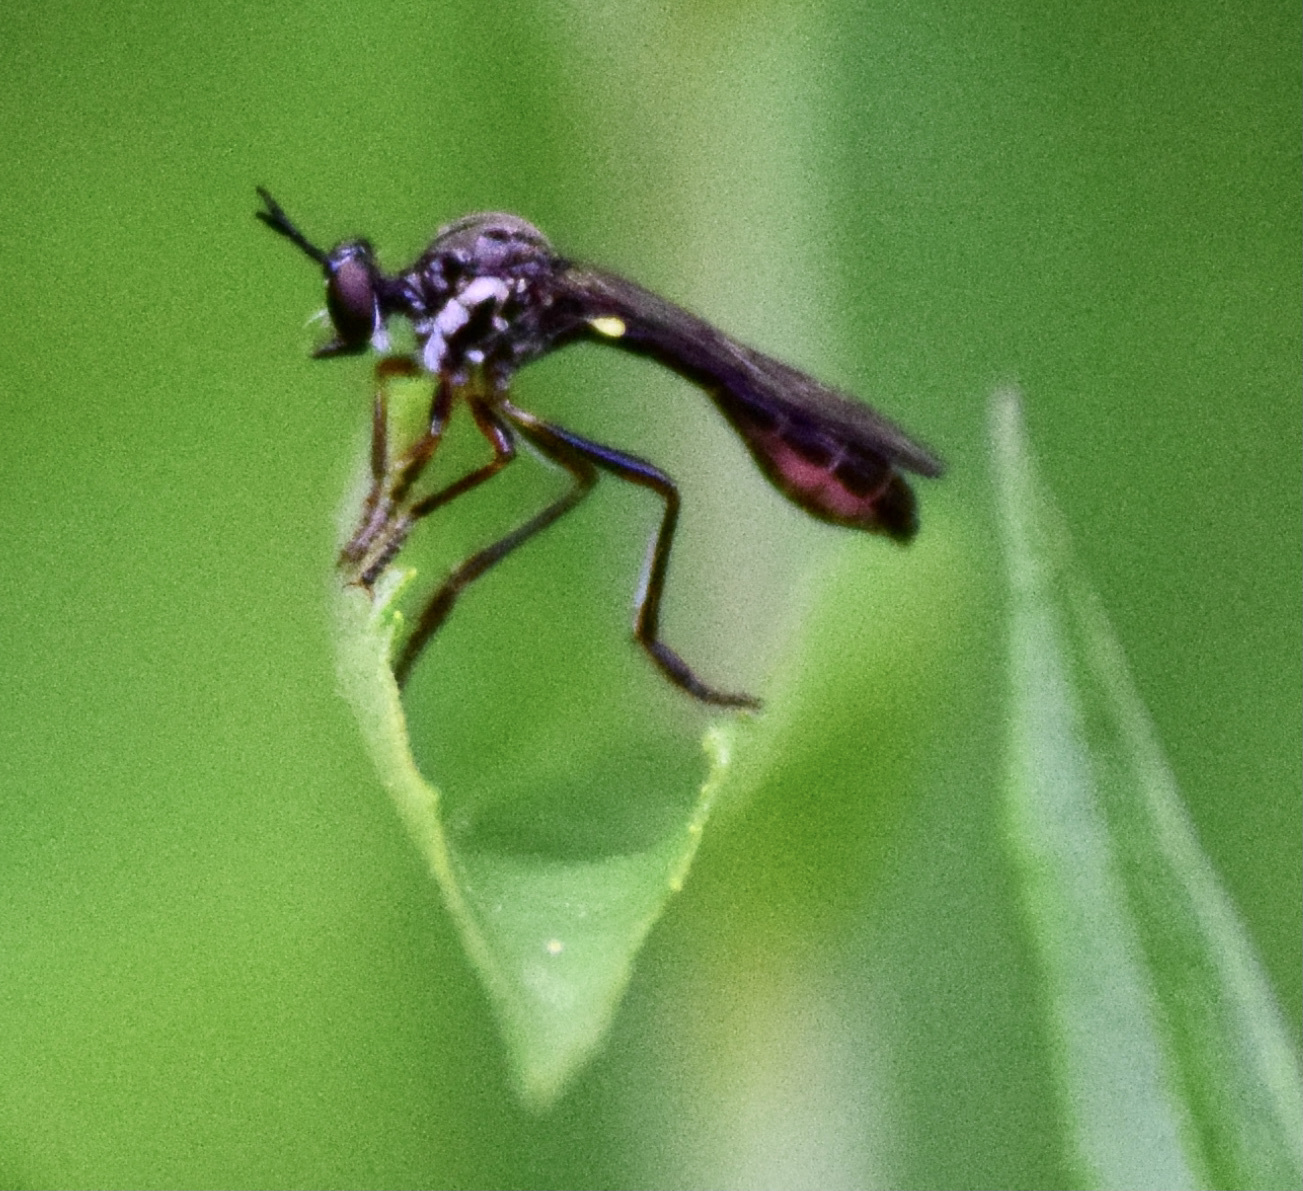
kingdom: Animalia
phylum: Arthropoda
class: Insecta
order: Diptera
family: Asilidae
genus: Dioctria
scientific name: Dioctria hyalipennis
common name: Stripe-legged robberfly
